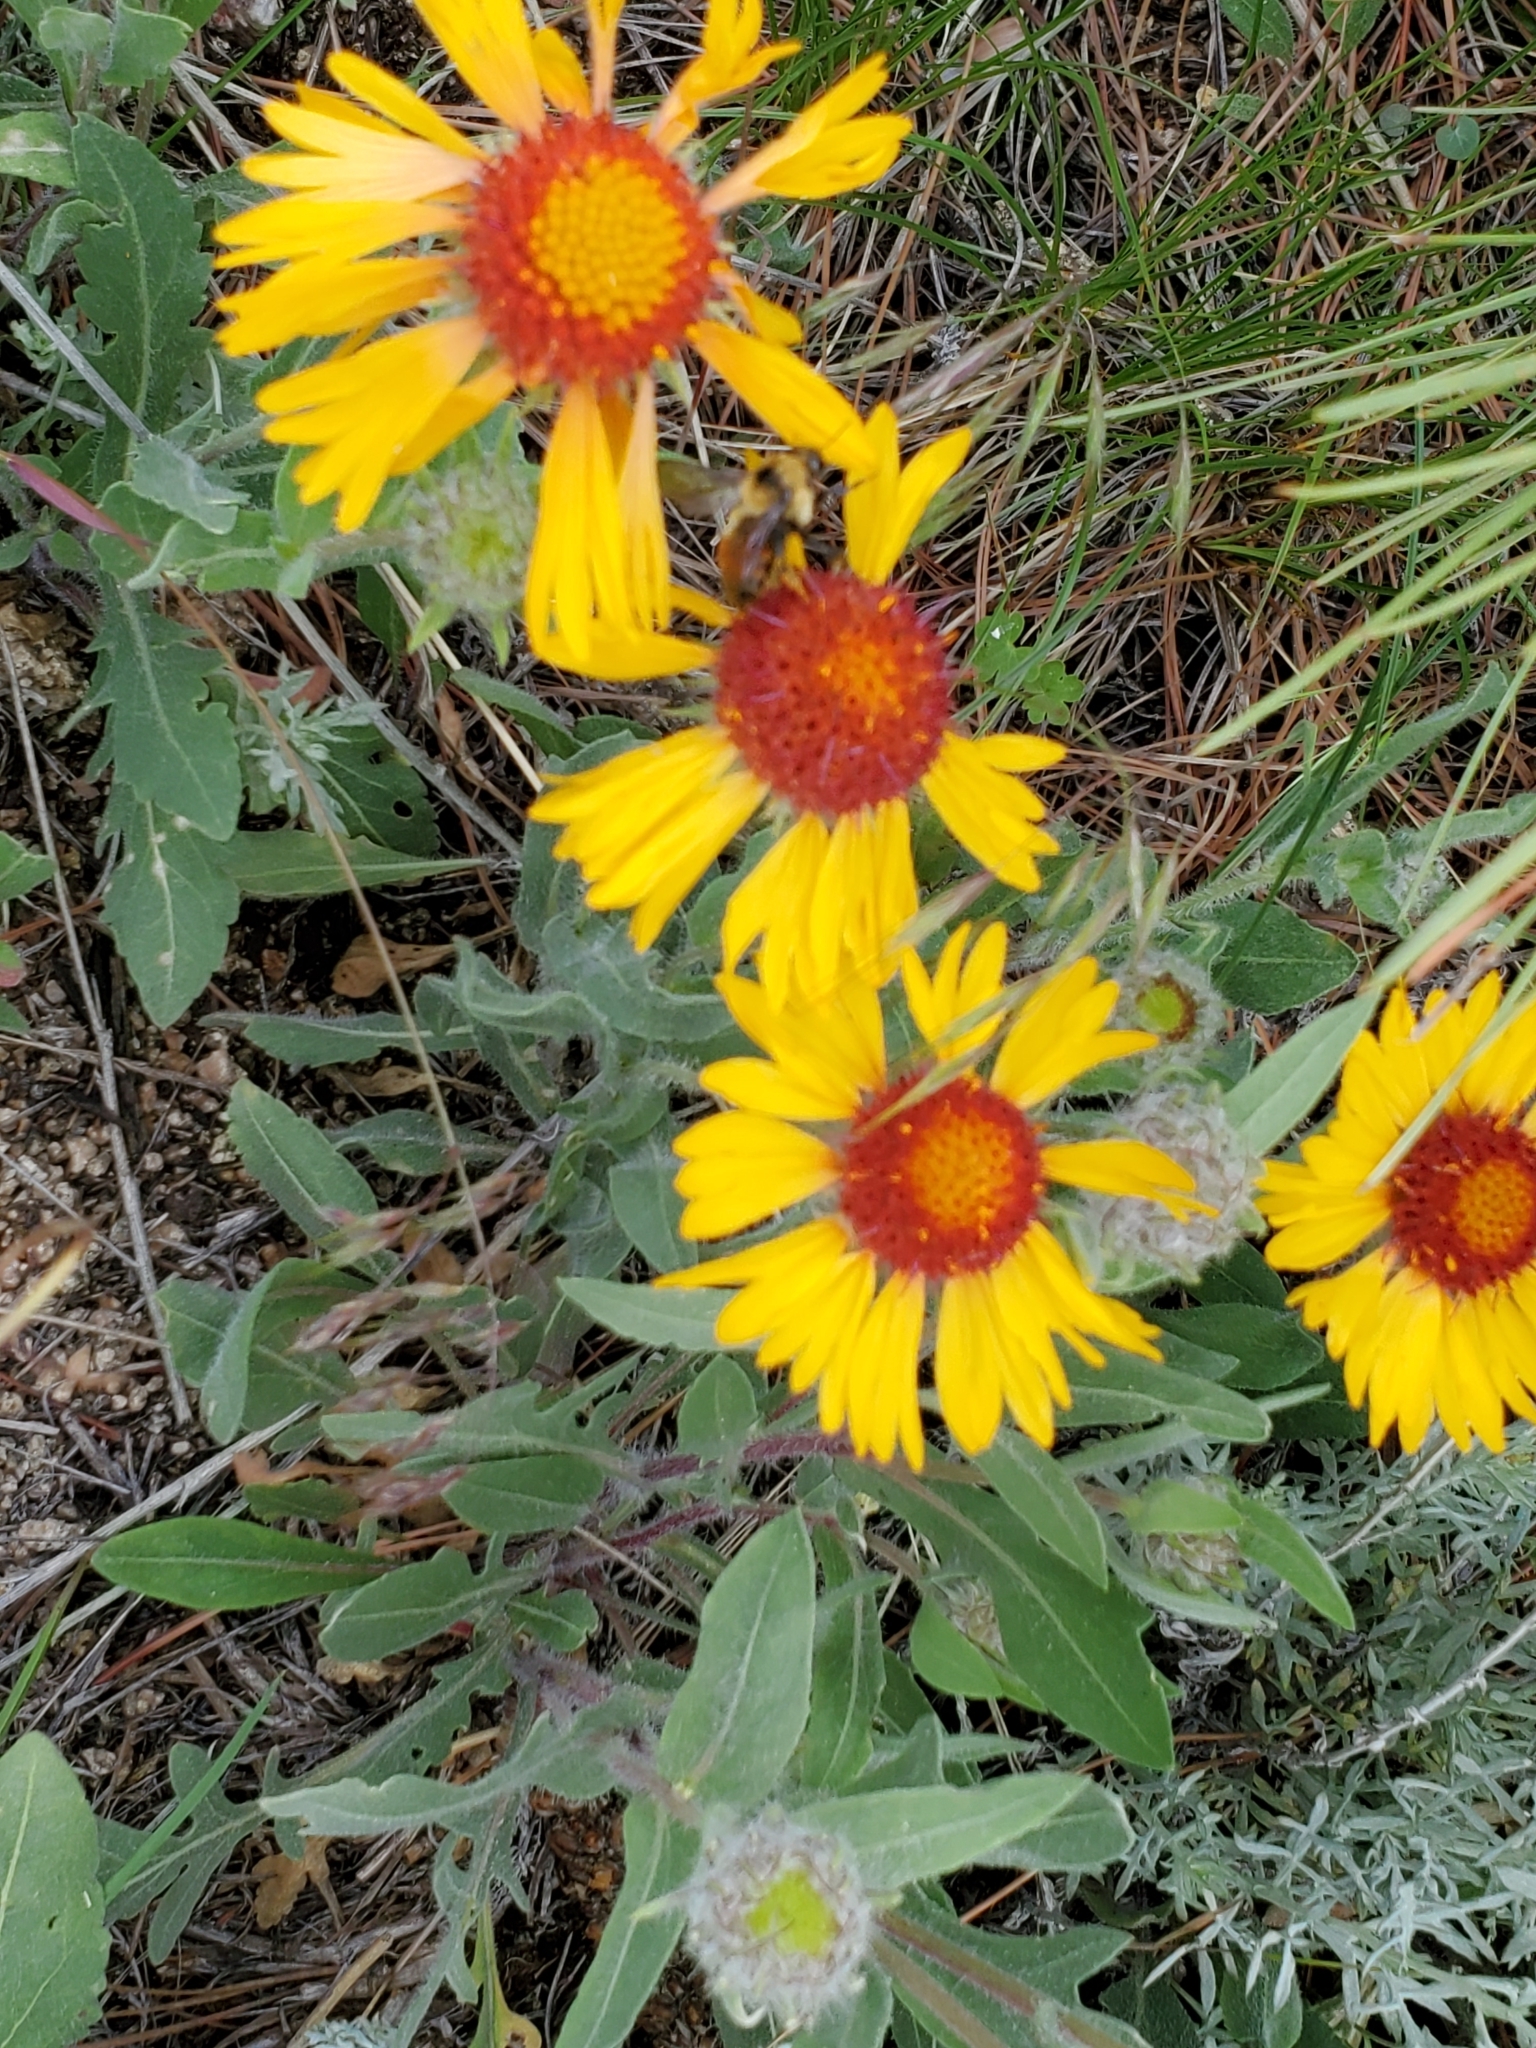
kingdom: Plantae
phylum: Tracheophyta
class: Magnoliopsida
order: Asterales
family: Asteraceae
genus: Gaillardia
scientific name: Gaillardia aristata
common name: Blanket-flower
